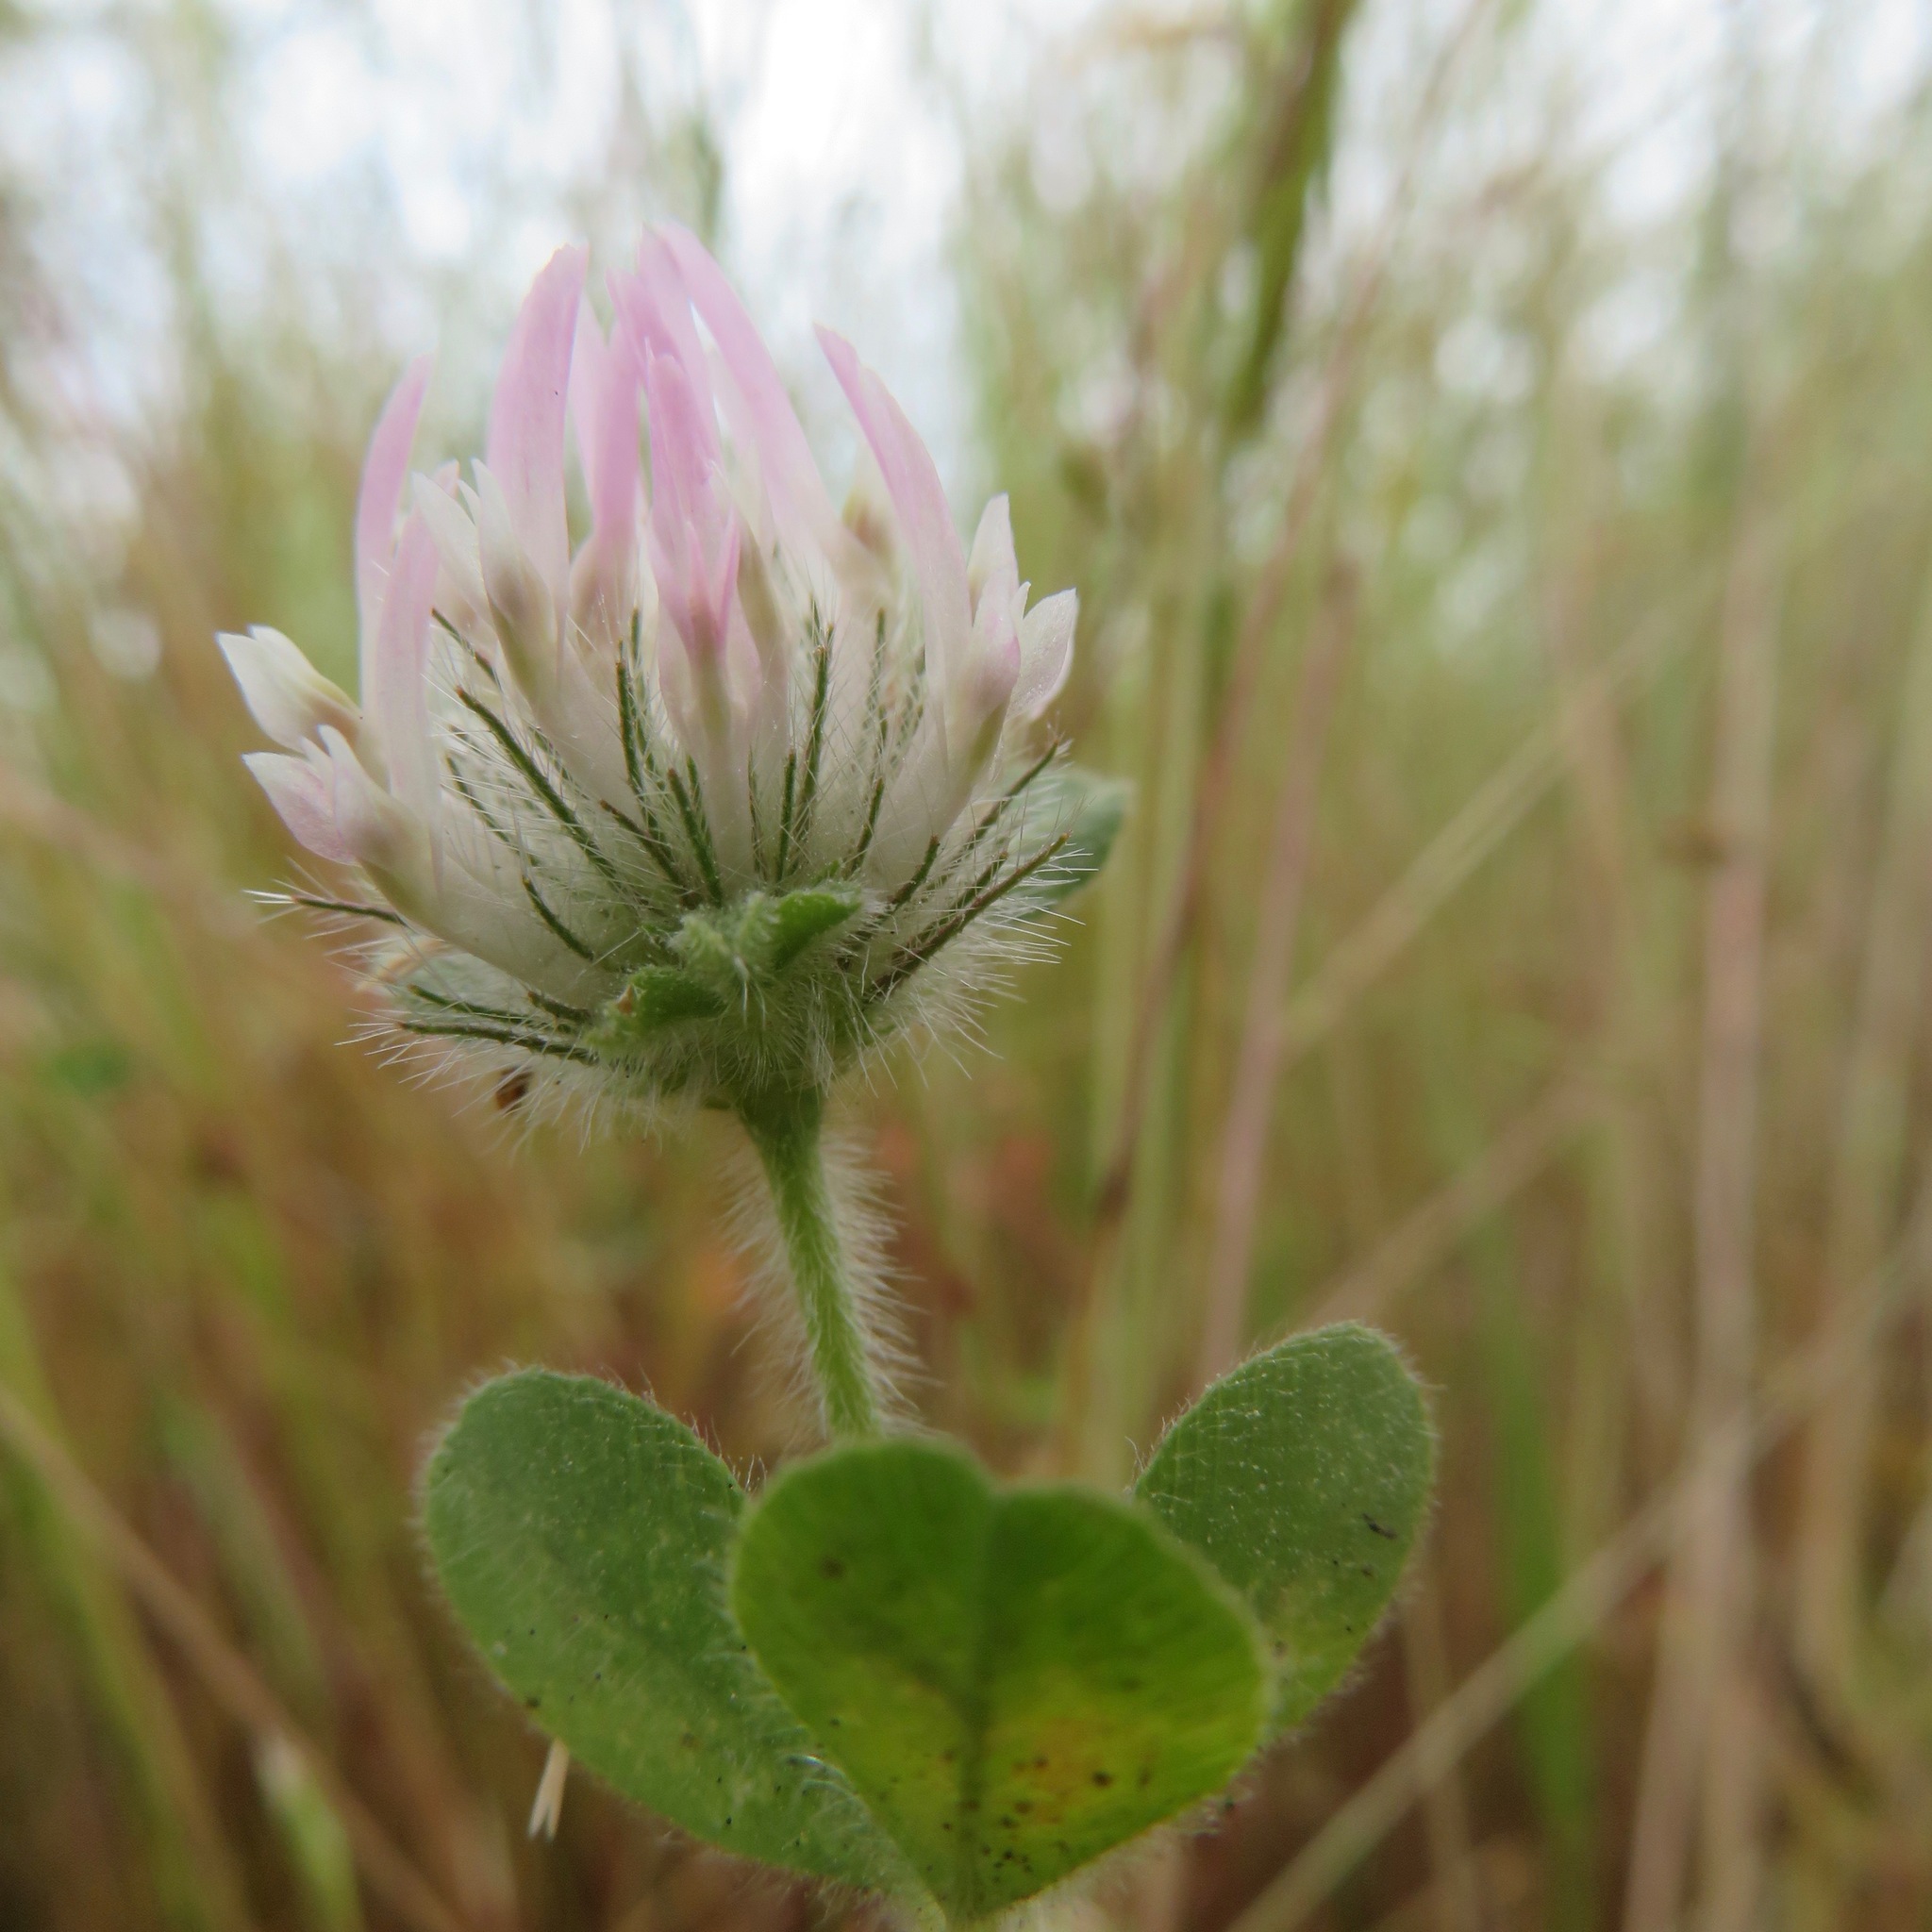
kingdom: Plantae
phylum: Tracheophyta
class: Magnoliopsida
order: Fabales
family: Fabaceae
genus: Trifolium
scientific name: Trifolium hirtum
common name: Rose clover
